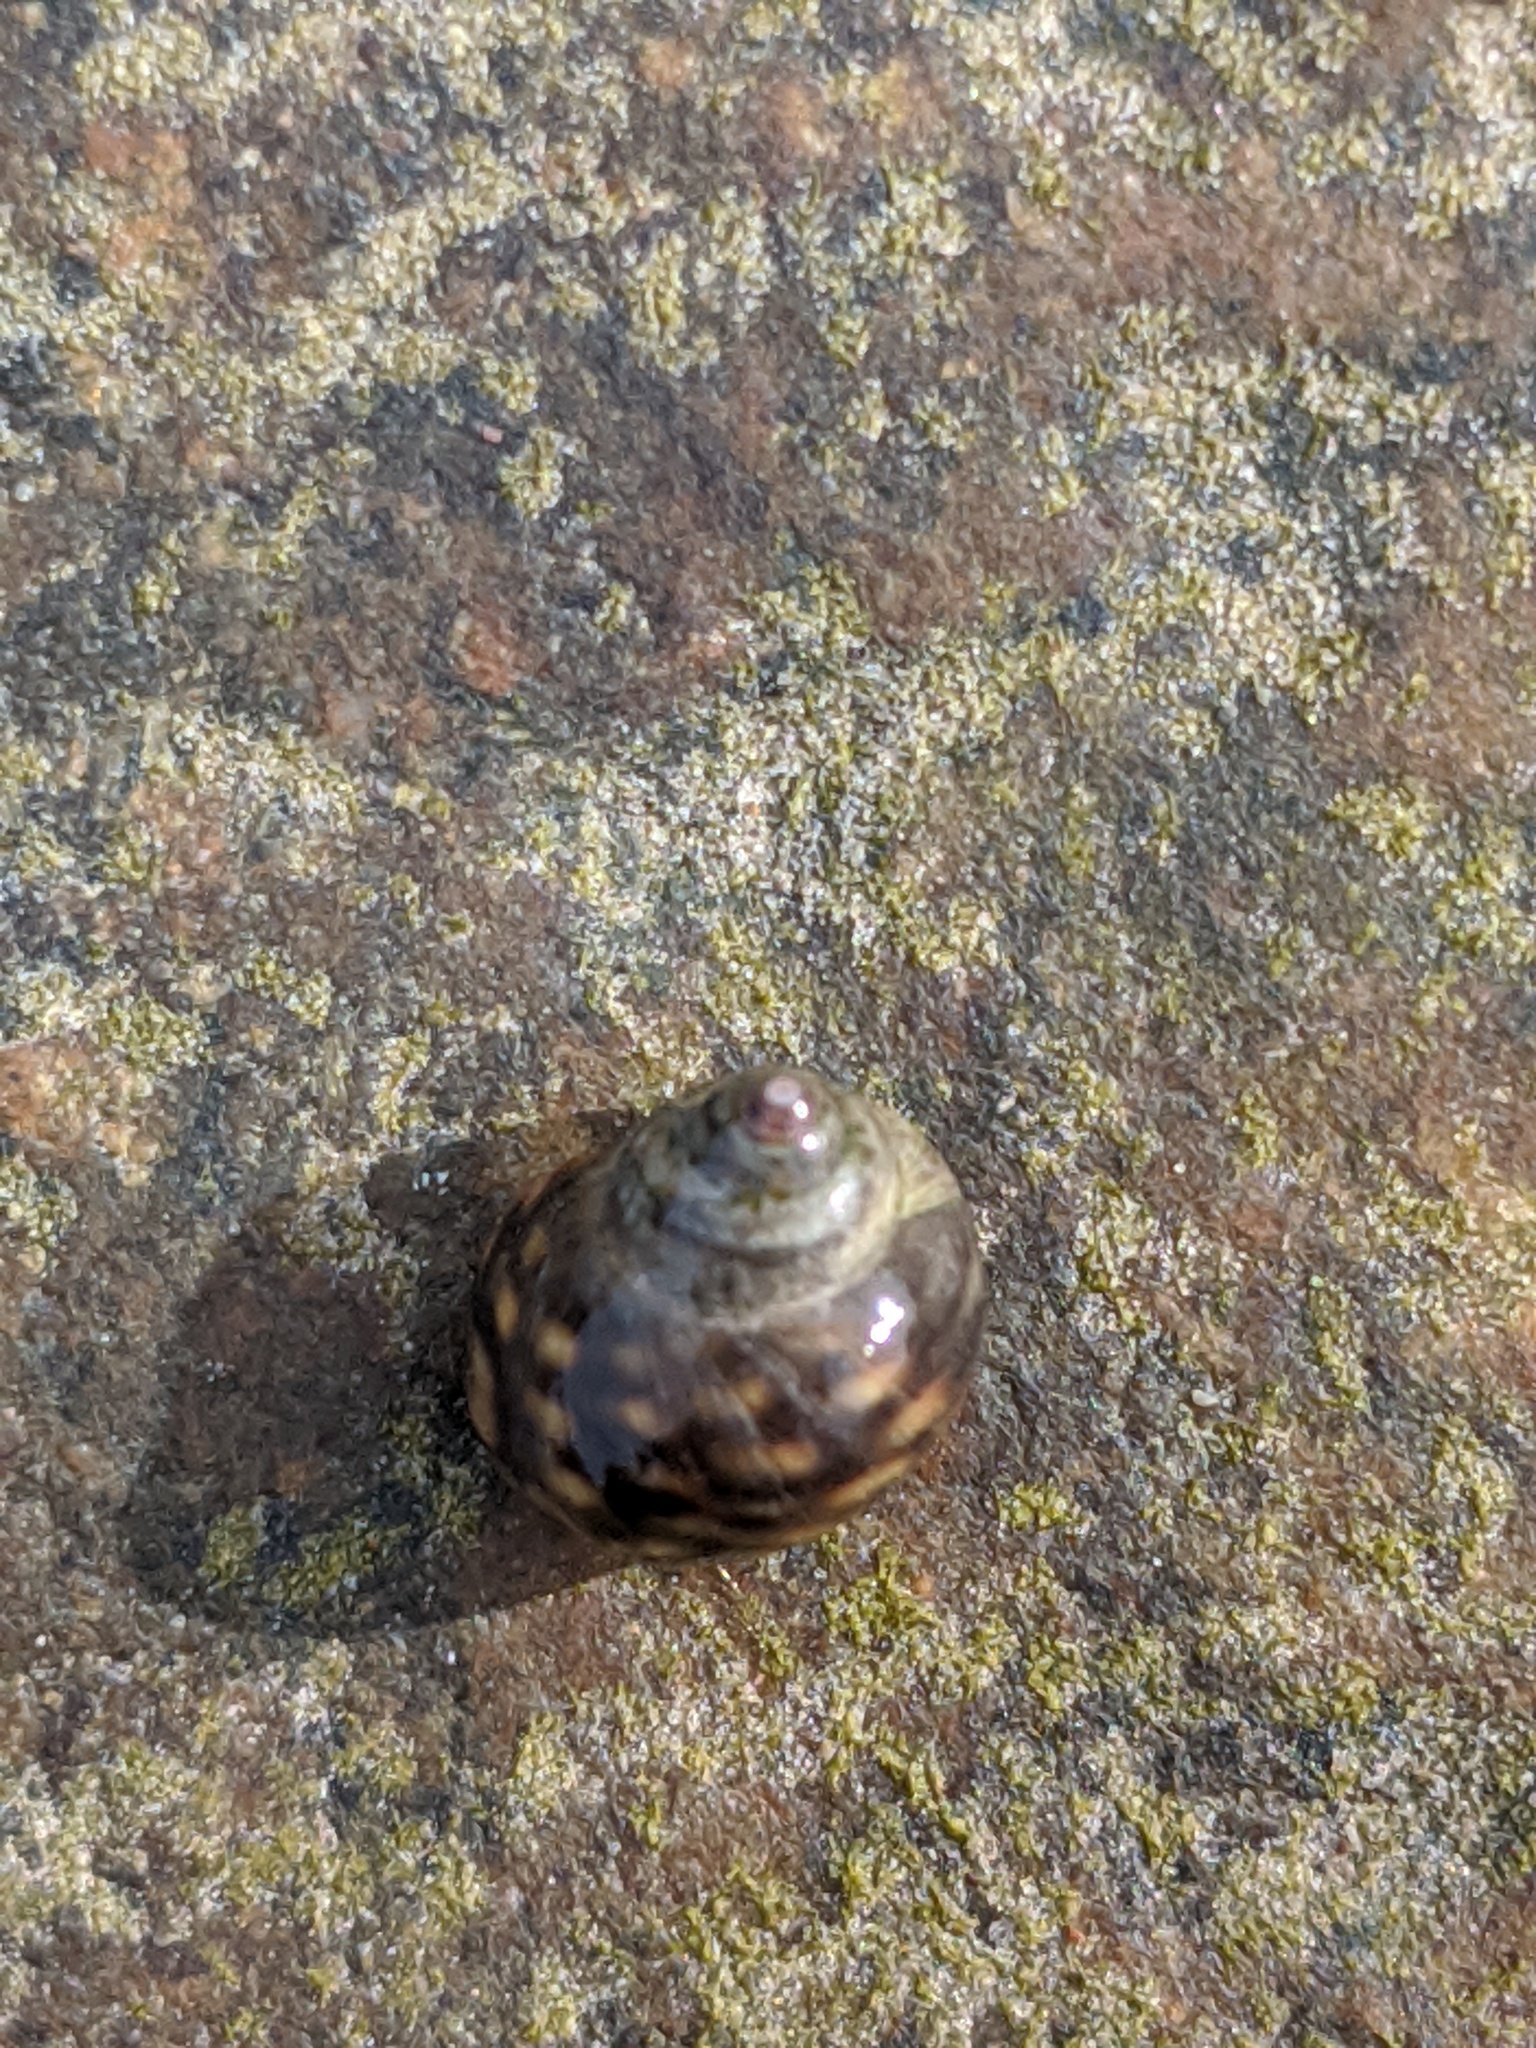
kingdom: Animalia
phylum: Mollusca
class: Gastropoda
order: Littorinimorpha
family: Littorinidae
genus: Littorina
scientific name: Littorina saxatilis
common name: Black-lined periwinkle
